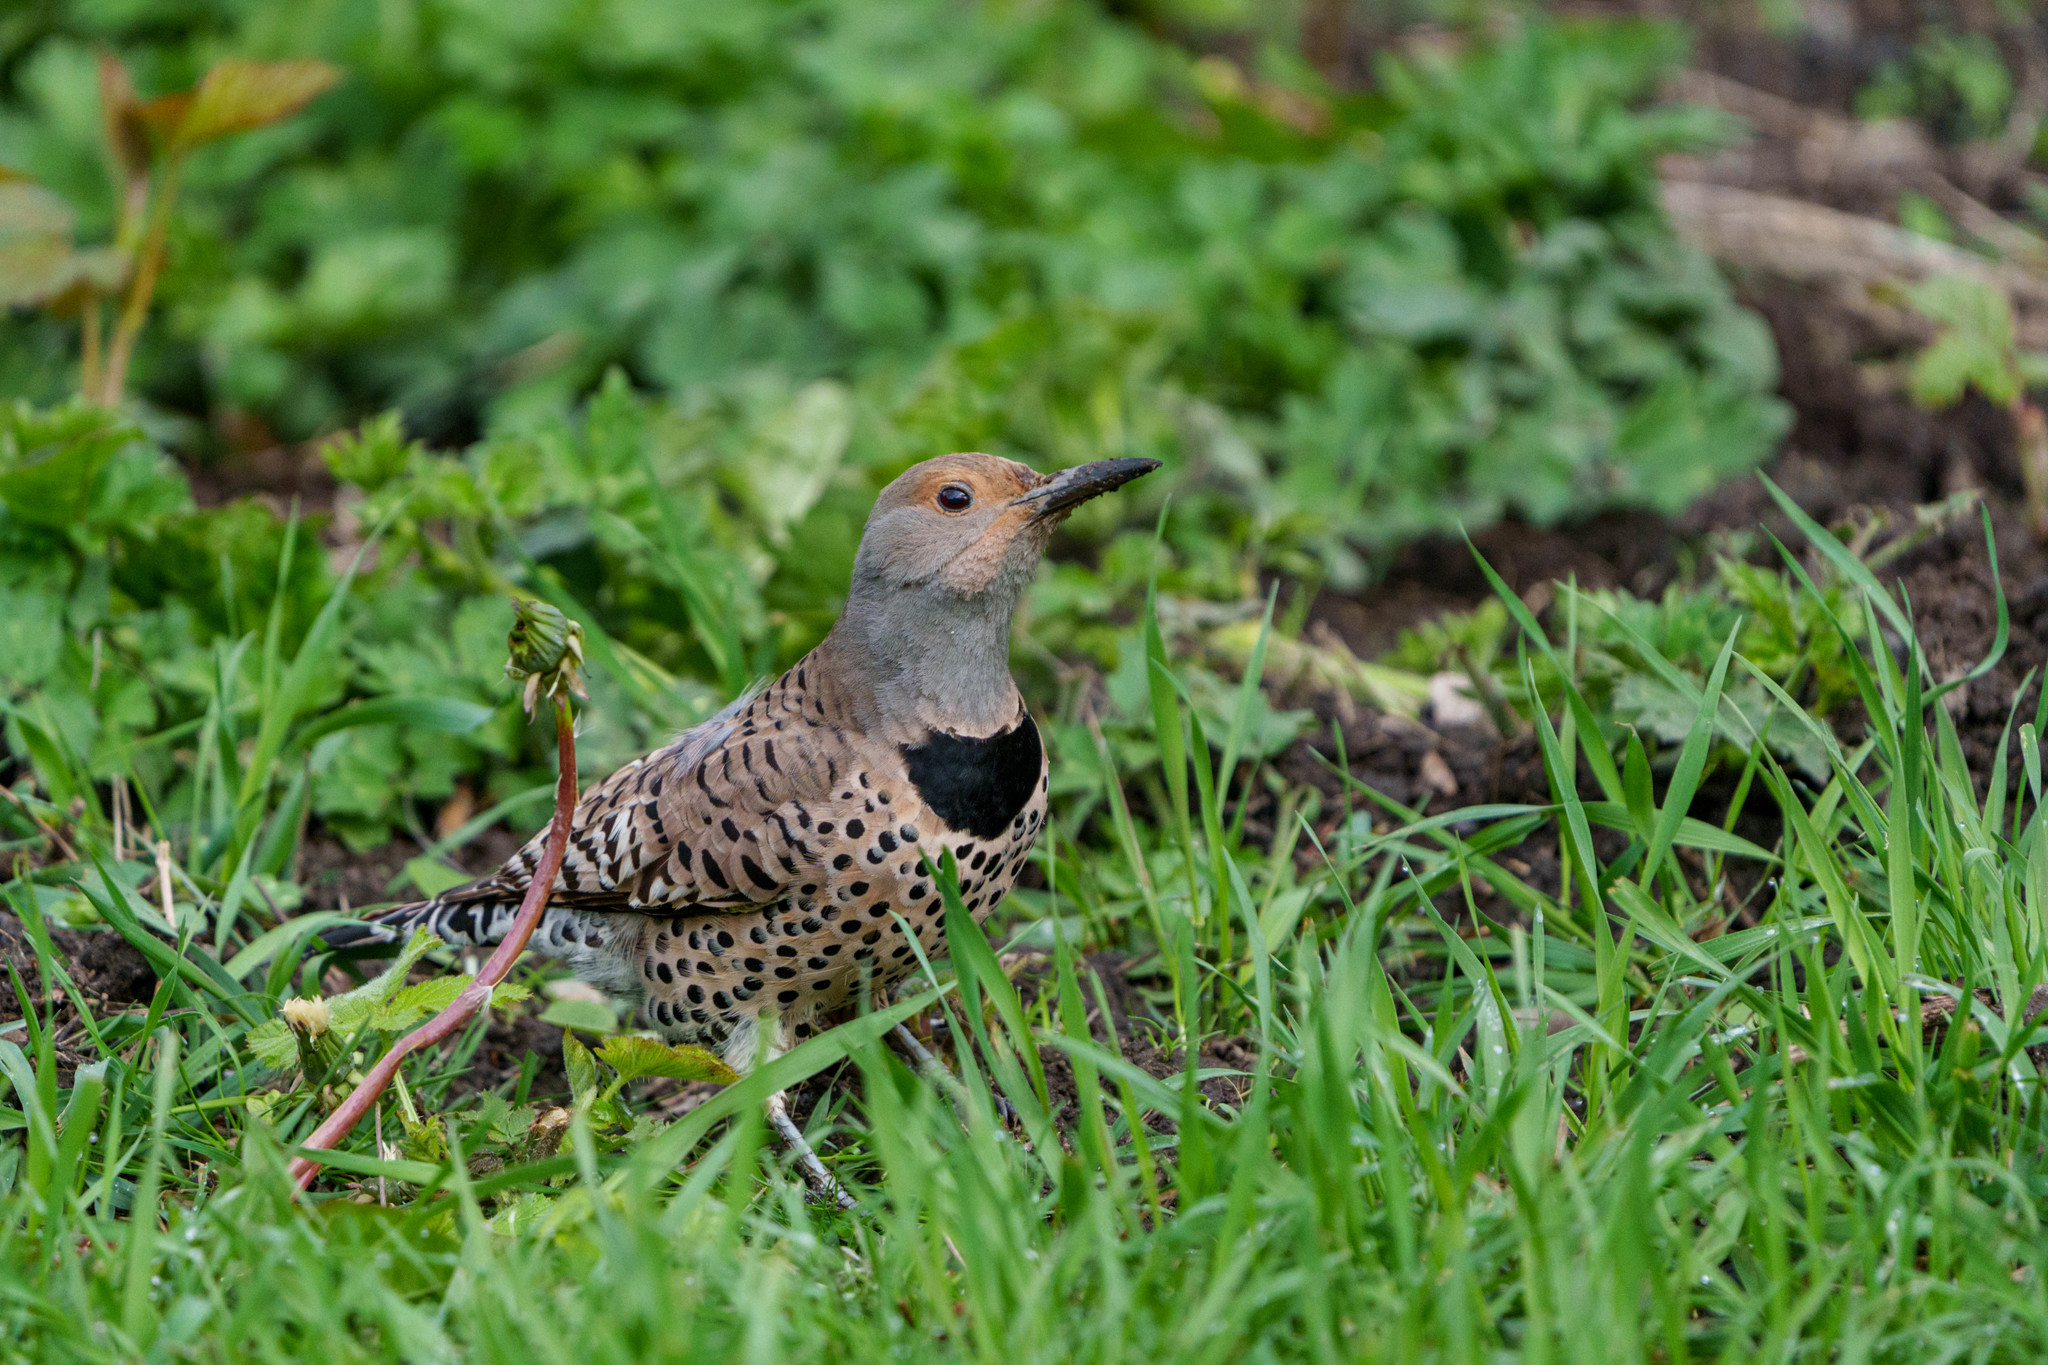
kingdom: Animalia
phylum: Chordata
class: Aves
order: Piciformes
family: Picidae
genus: Colaptes
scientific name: Colaptes auratus
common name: Northern flicker
